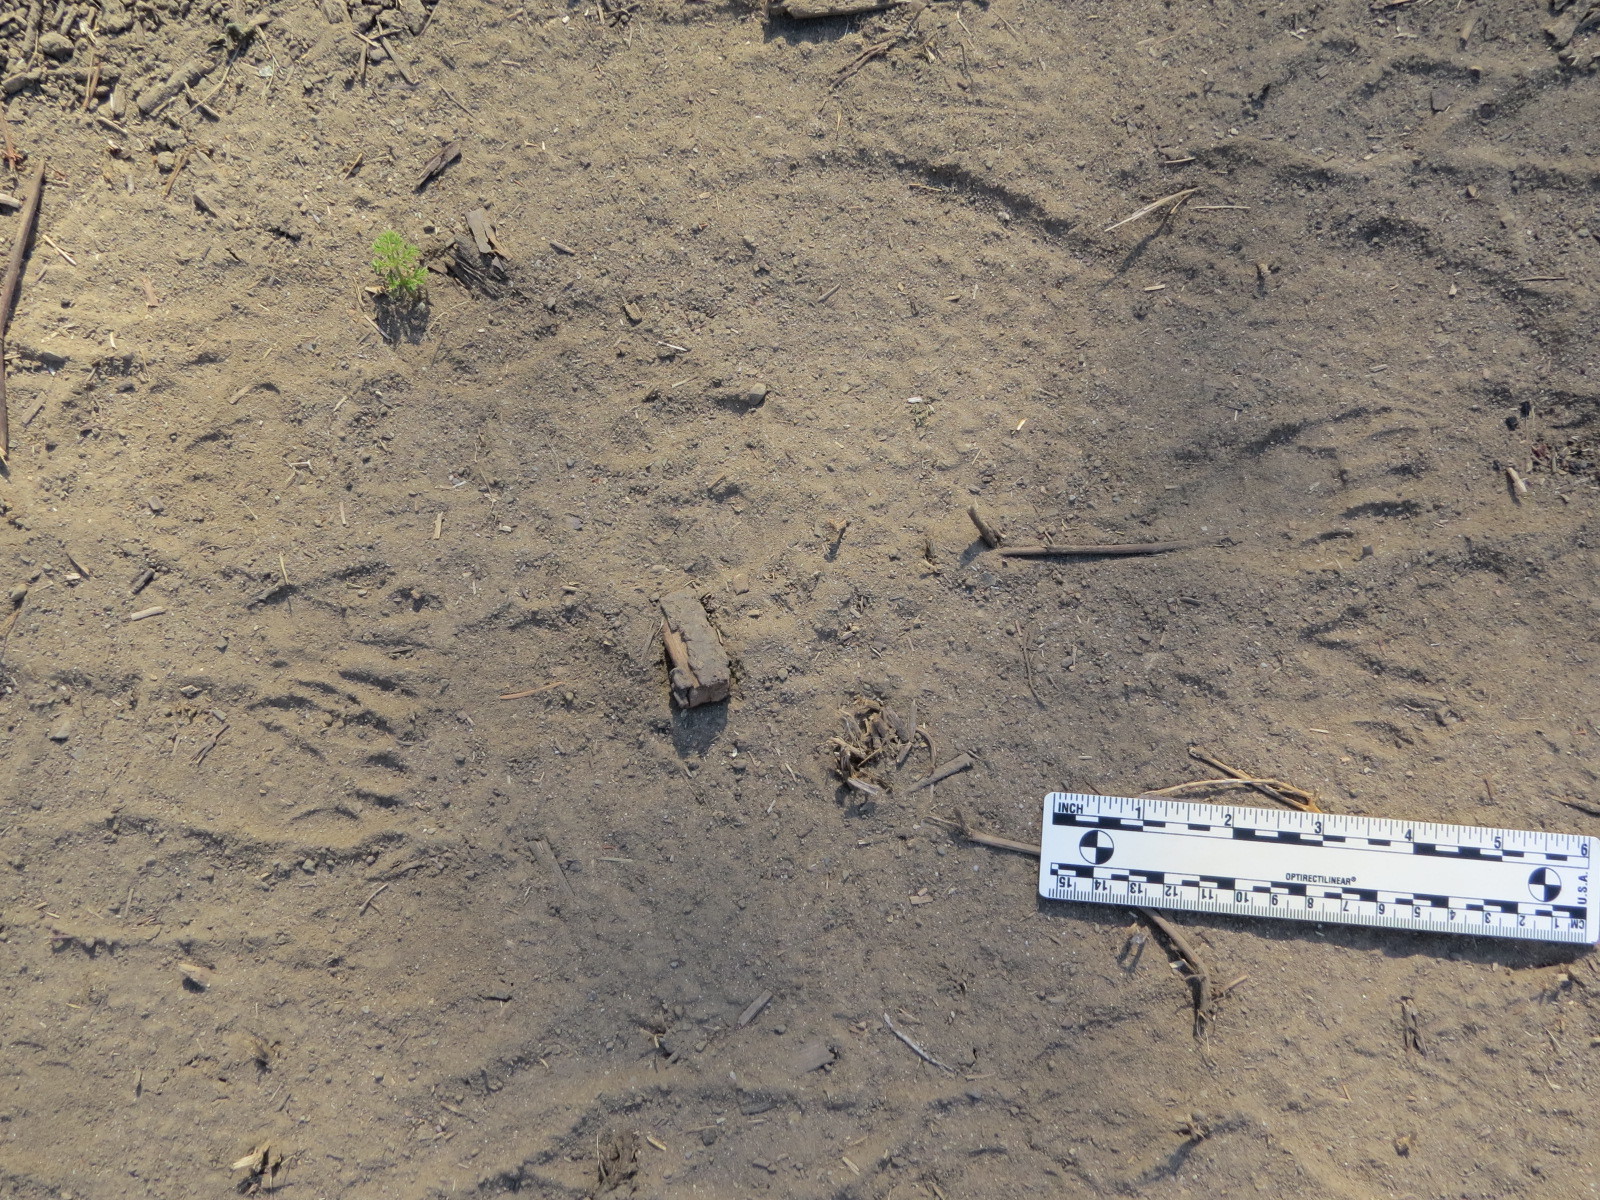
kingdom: Animalia
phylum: Chordata
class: Mammalia
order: Carnivora
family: Procyonidae
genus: Procyon
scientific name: Procyon lotor
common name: Raccoon
